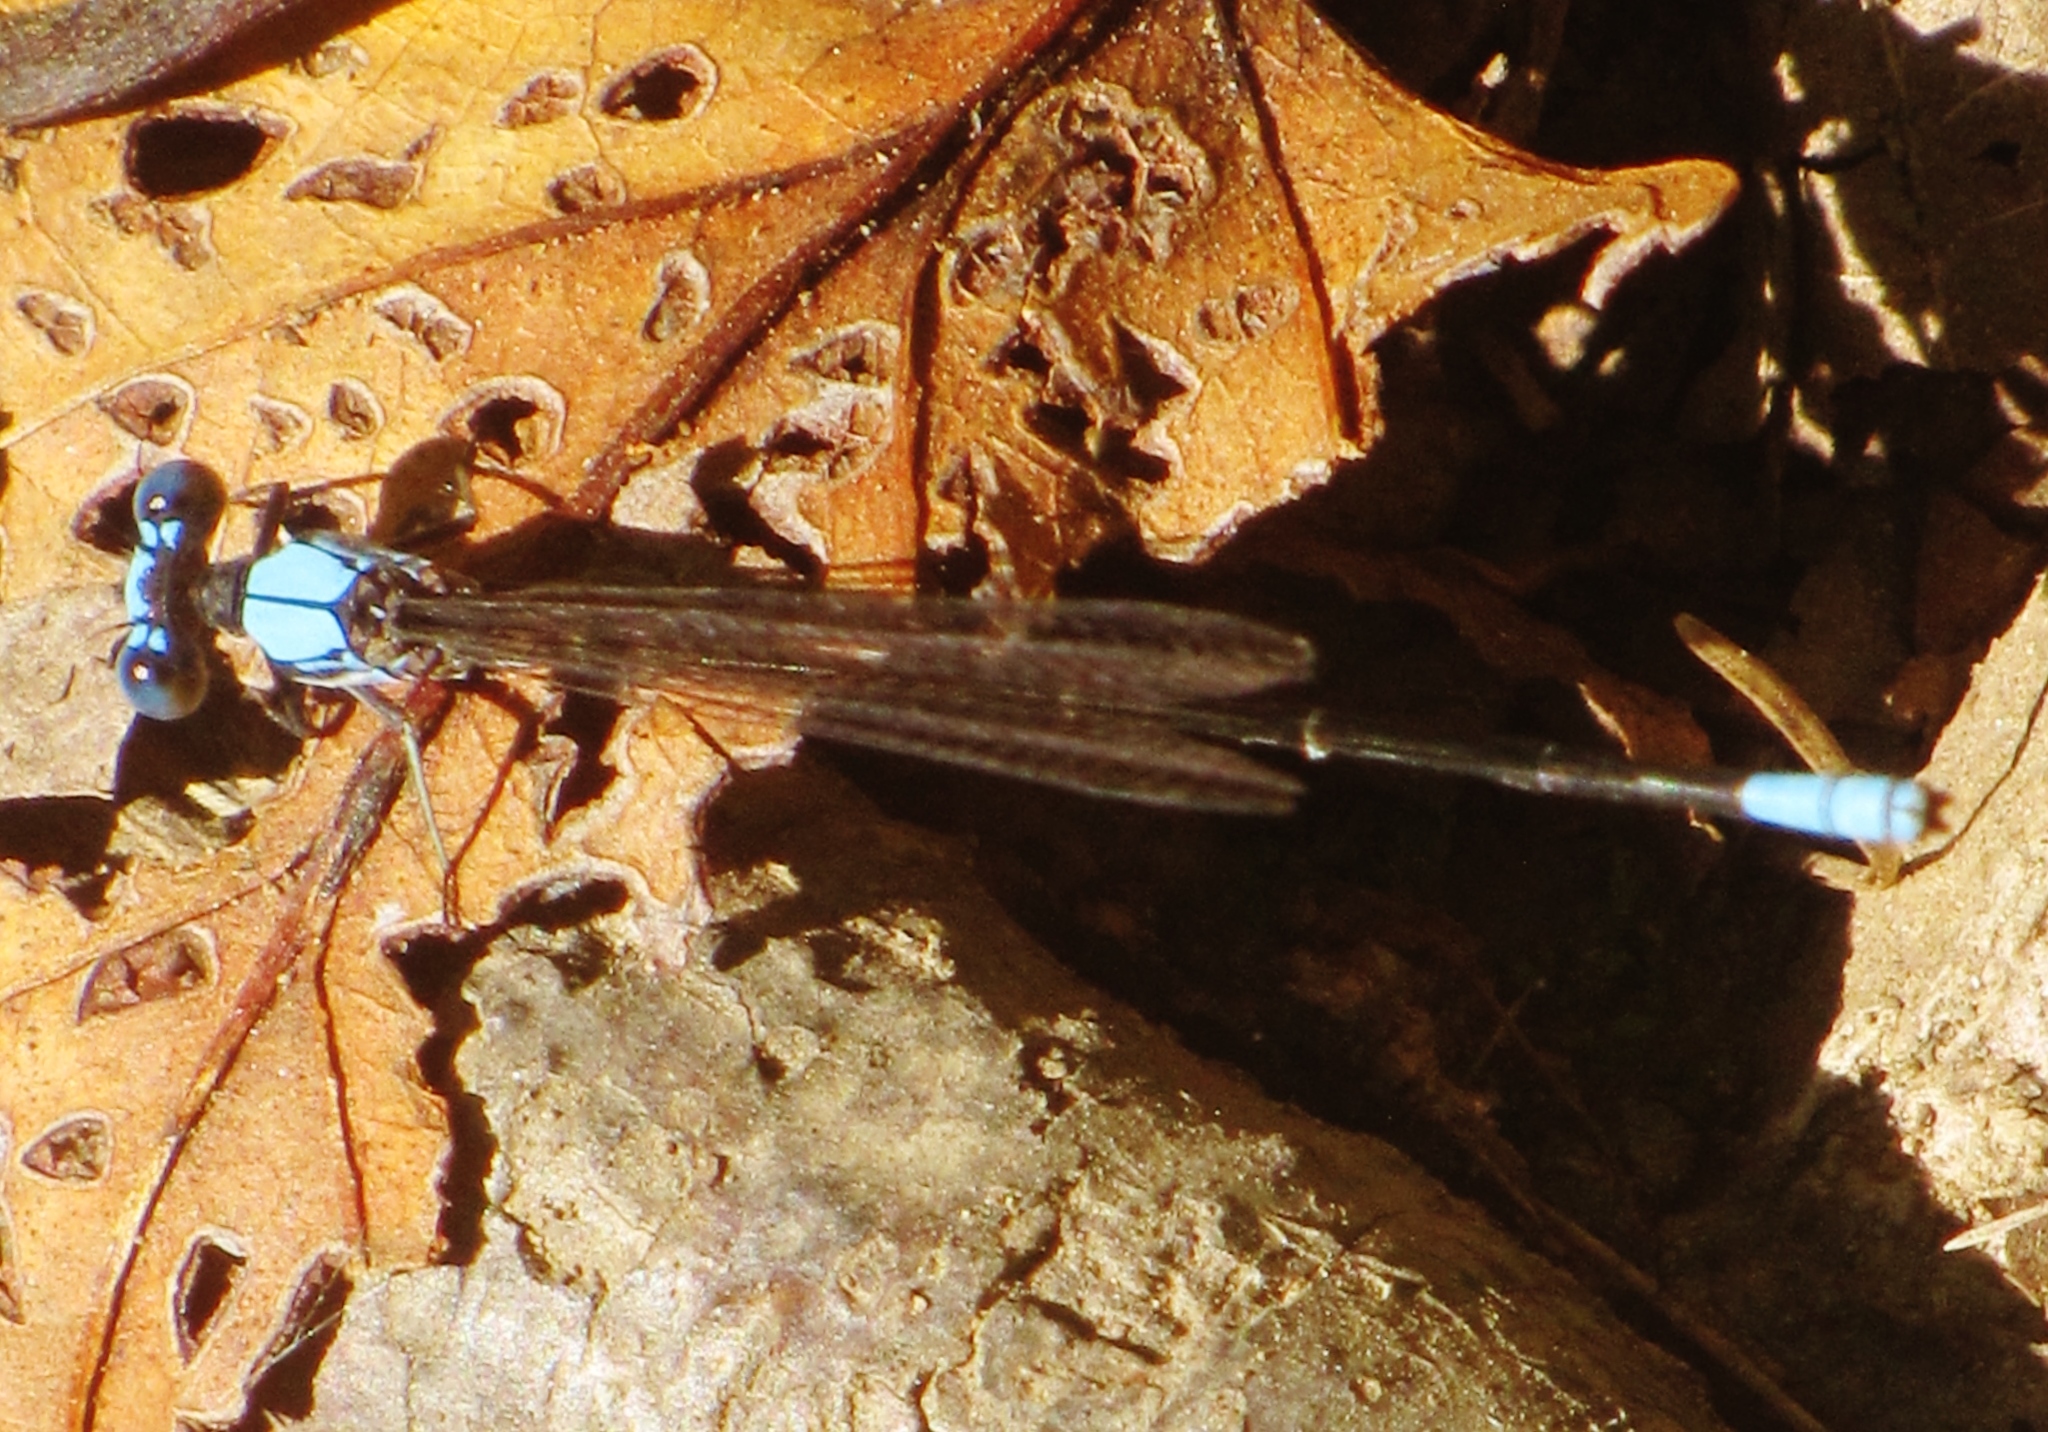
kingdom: Animalia
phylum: Arthropoda
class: Insecta
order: Odonata
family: Coenagrionidae
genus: Argia
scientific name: Argia apicalis
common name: Blue-fronted dancer
